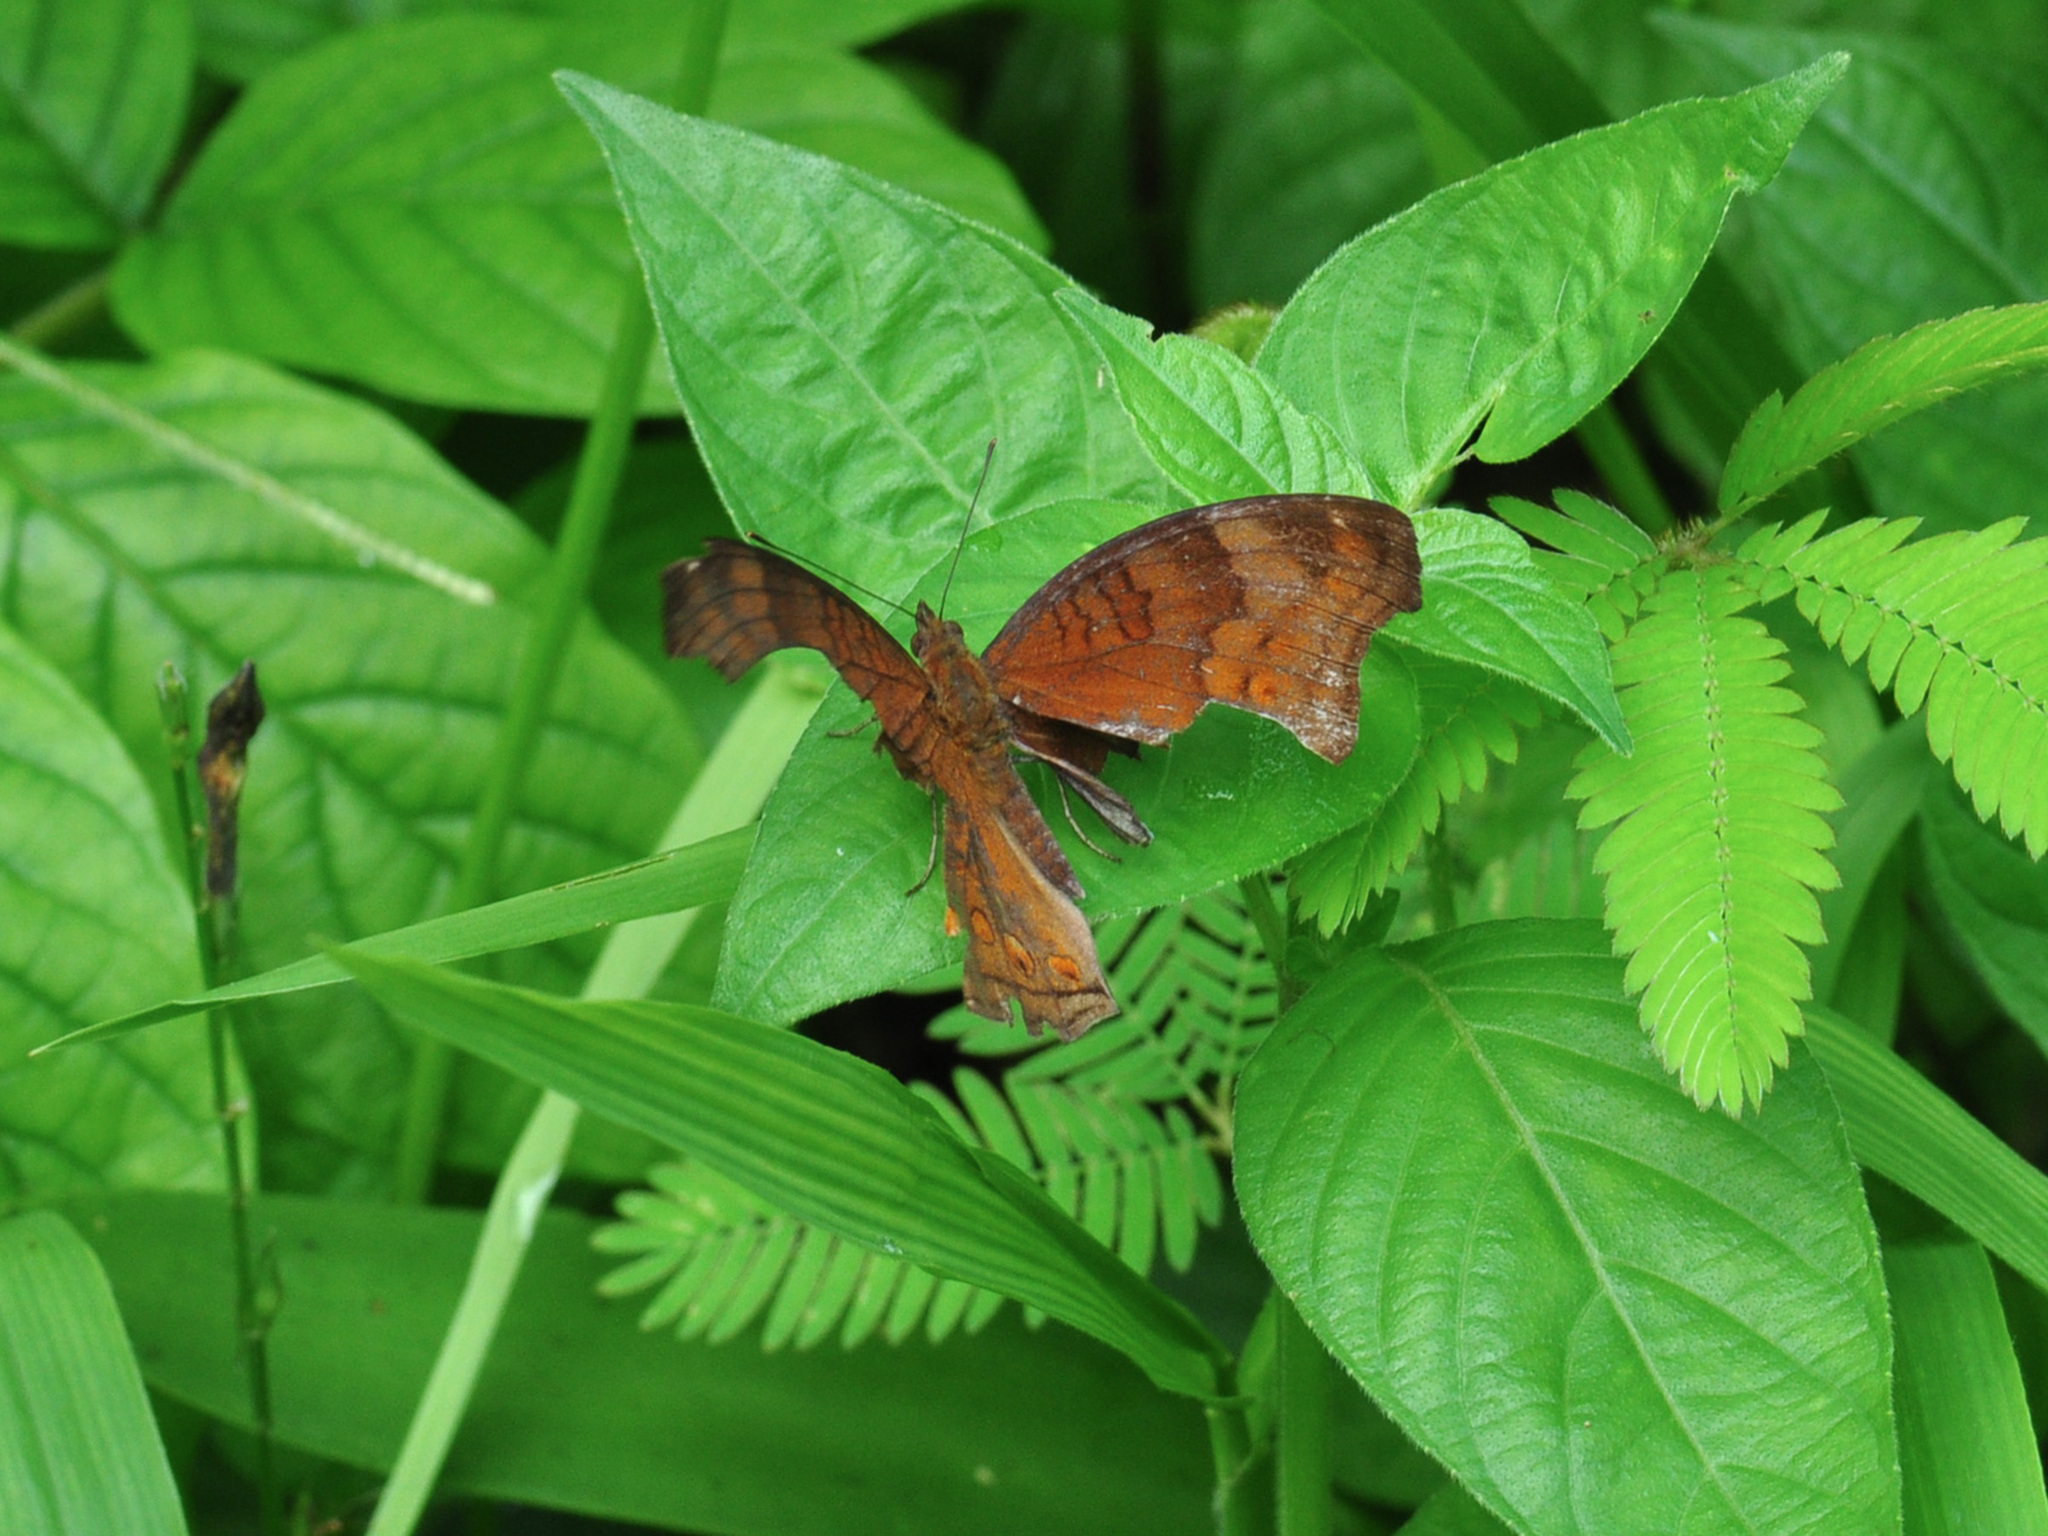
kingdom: Animalia
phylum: Arthropoda
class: Insecta
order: Lepidoptera
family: Nymphalidae
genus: Junonia
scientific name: Junonia hedonia
